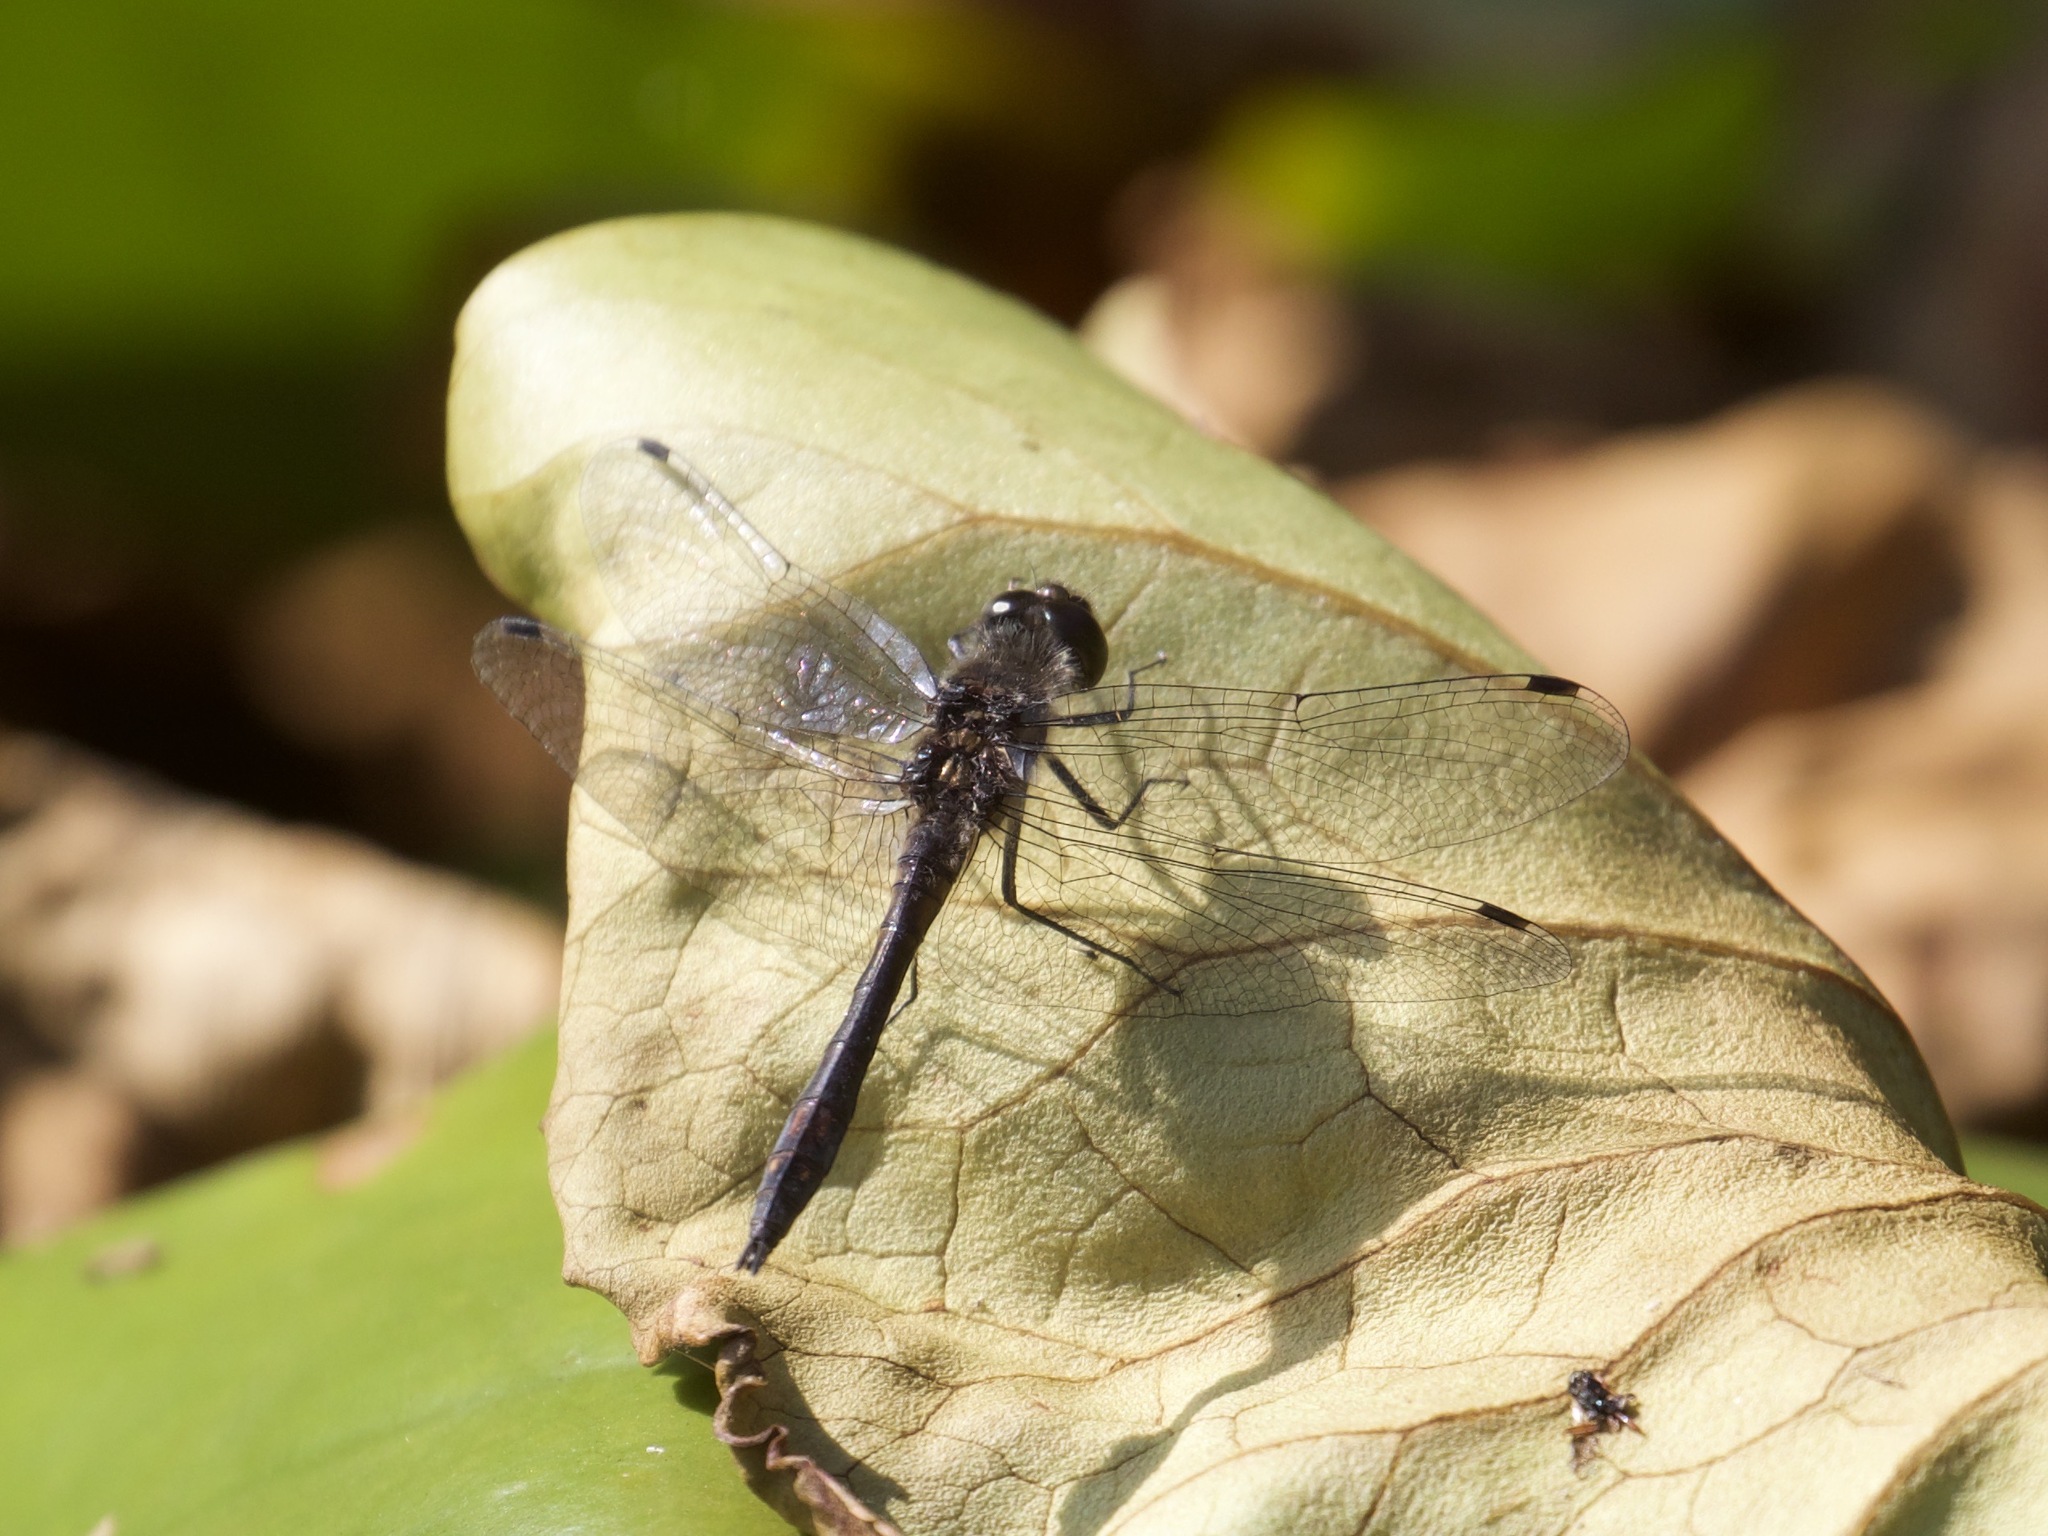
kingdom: Animalia
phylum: Arthropoda
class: Insecta
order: Odonata
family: Libellulidae
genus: Sympetrum
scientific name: Sympetrum danae
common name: Black darter
